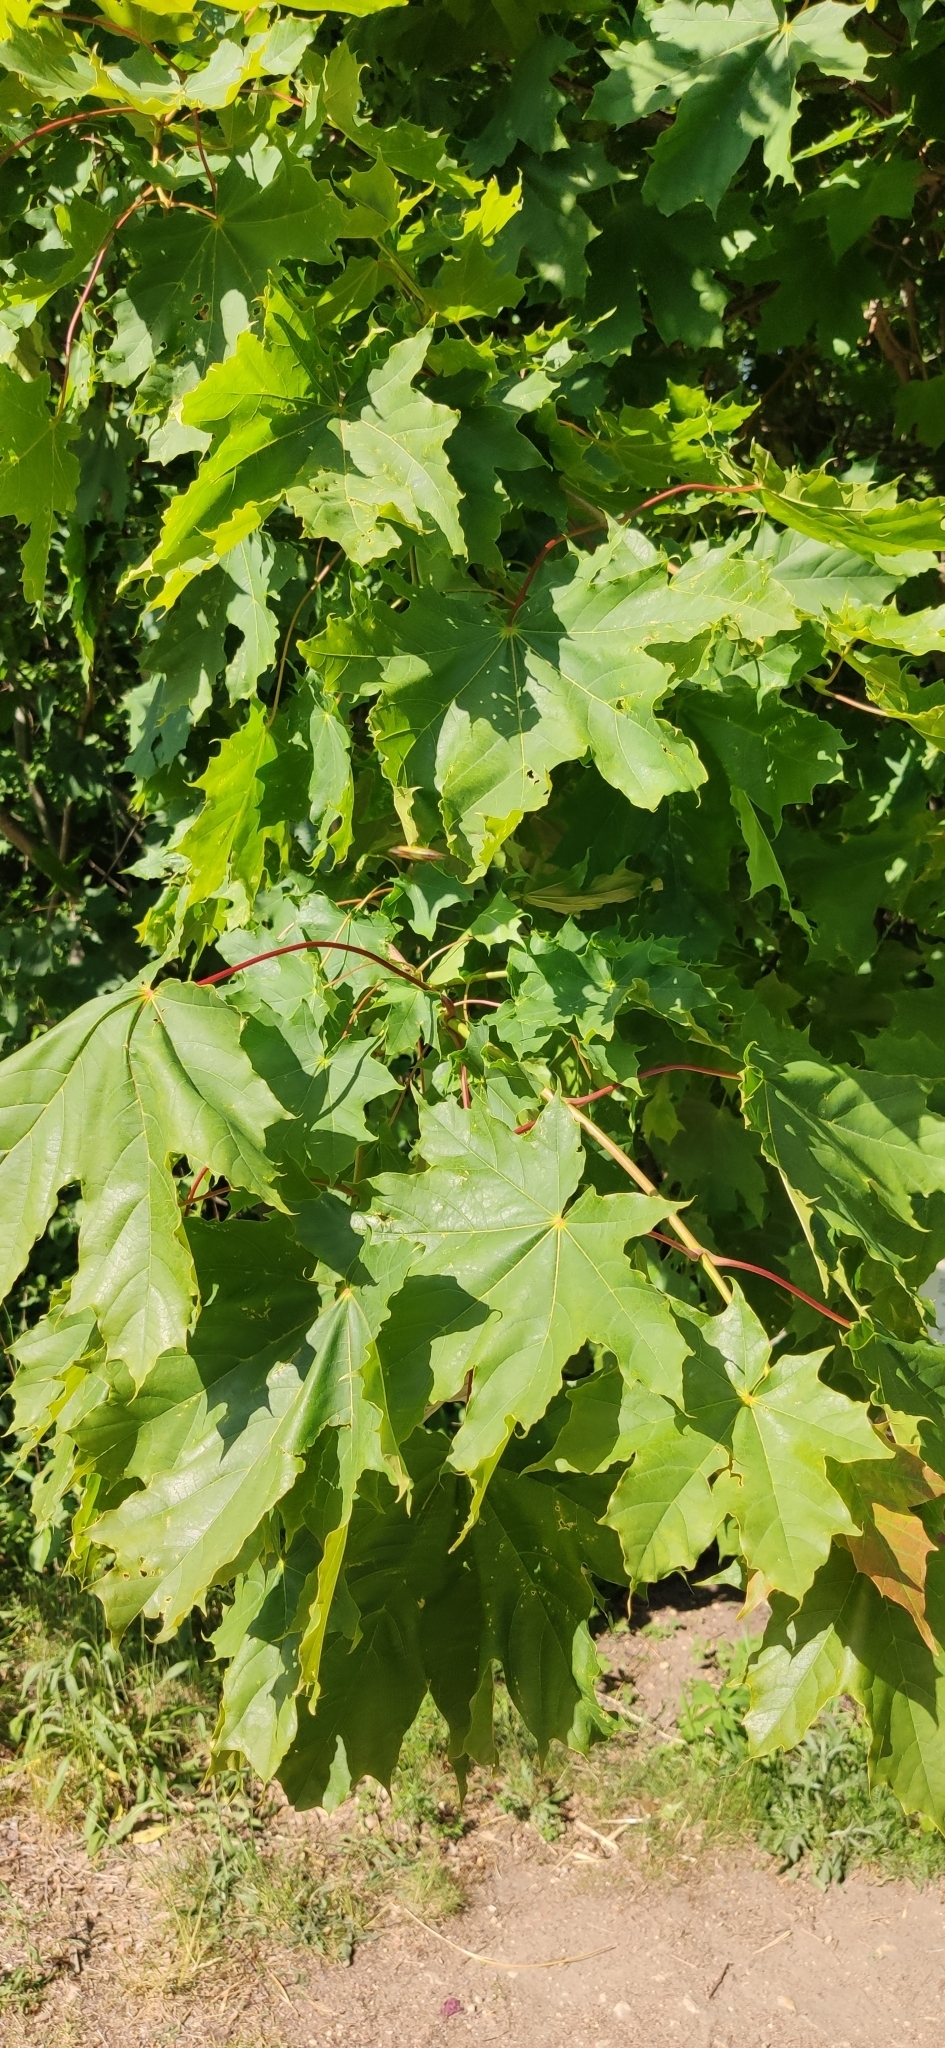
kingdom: Plantae
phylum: Tracheophyta
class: Magnoliopsida
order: Sapindales
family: Sapindaceae
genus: Acer
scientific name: Acer platanoides
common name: Norway maple
